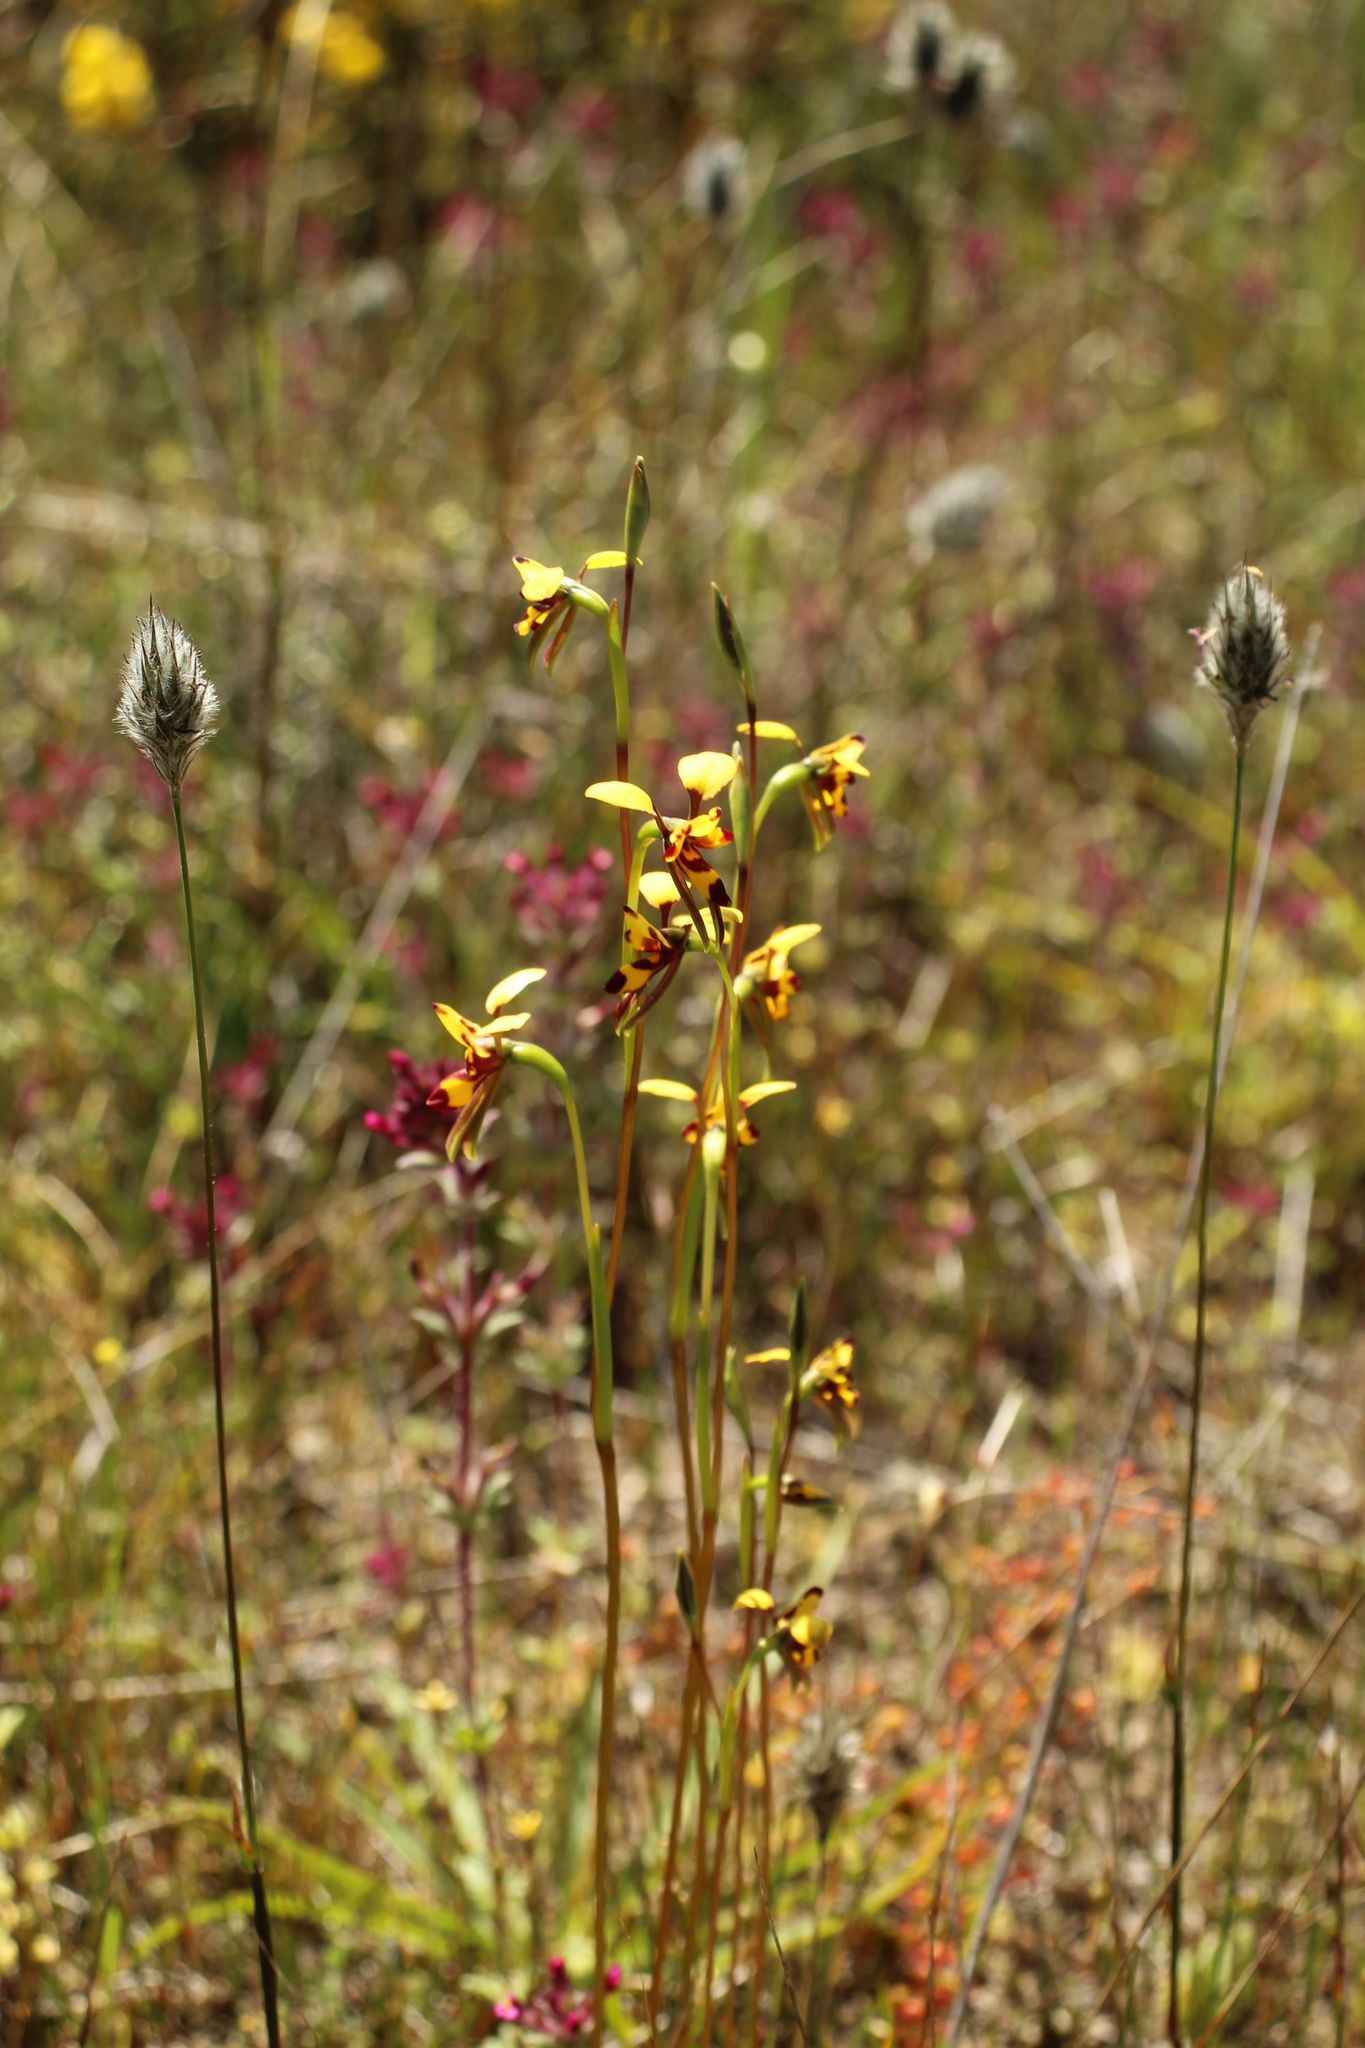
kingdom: Plantae
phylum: Tracheophyta
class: Liliopsida
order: Asparagales
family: Orchidaceae
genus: Diuris
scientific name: Diuris decrementum
